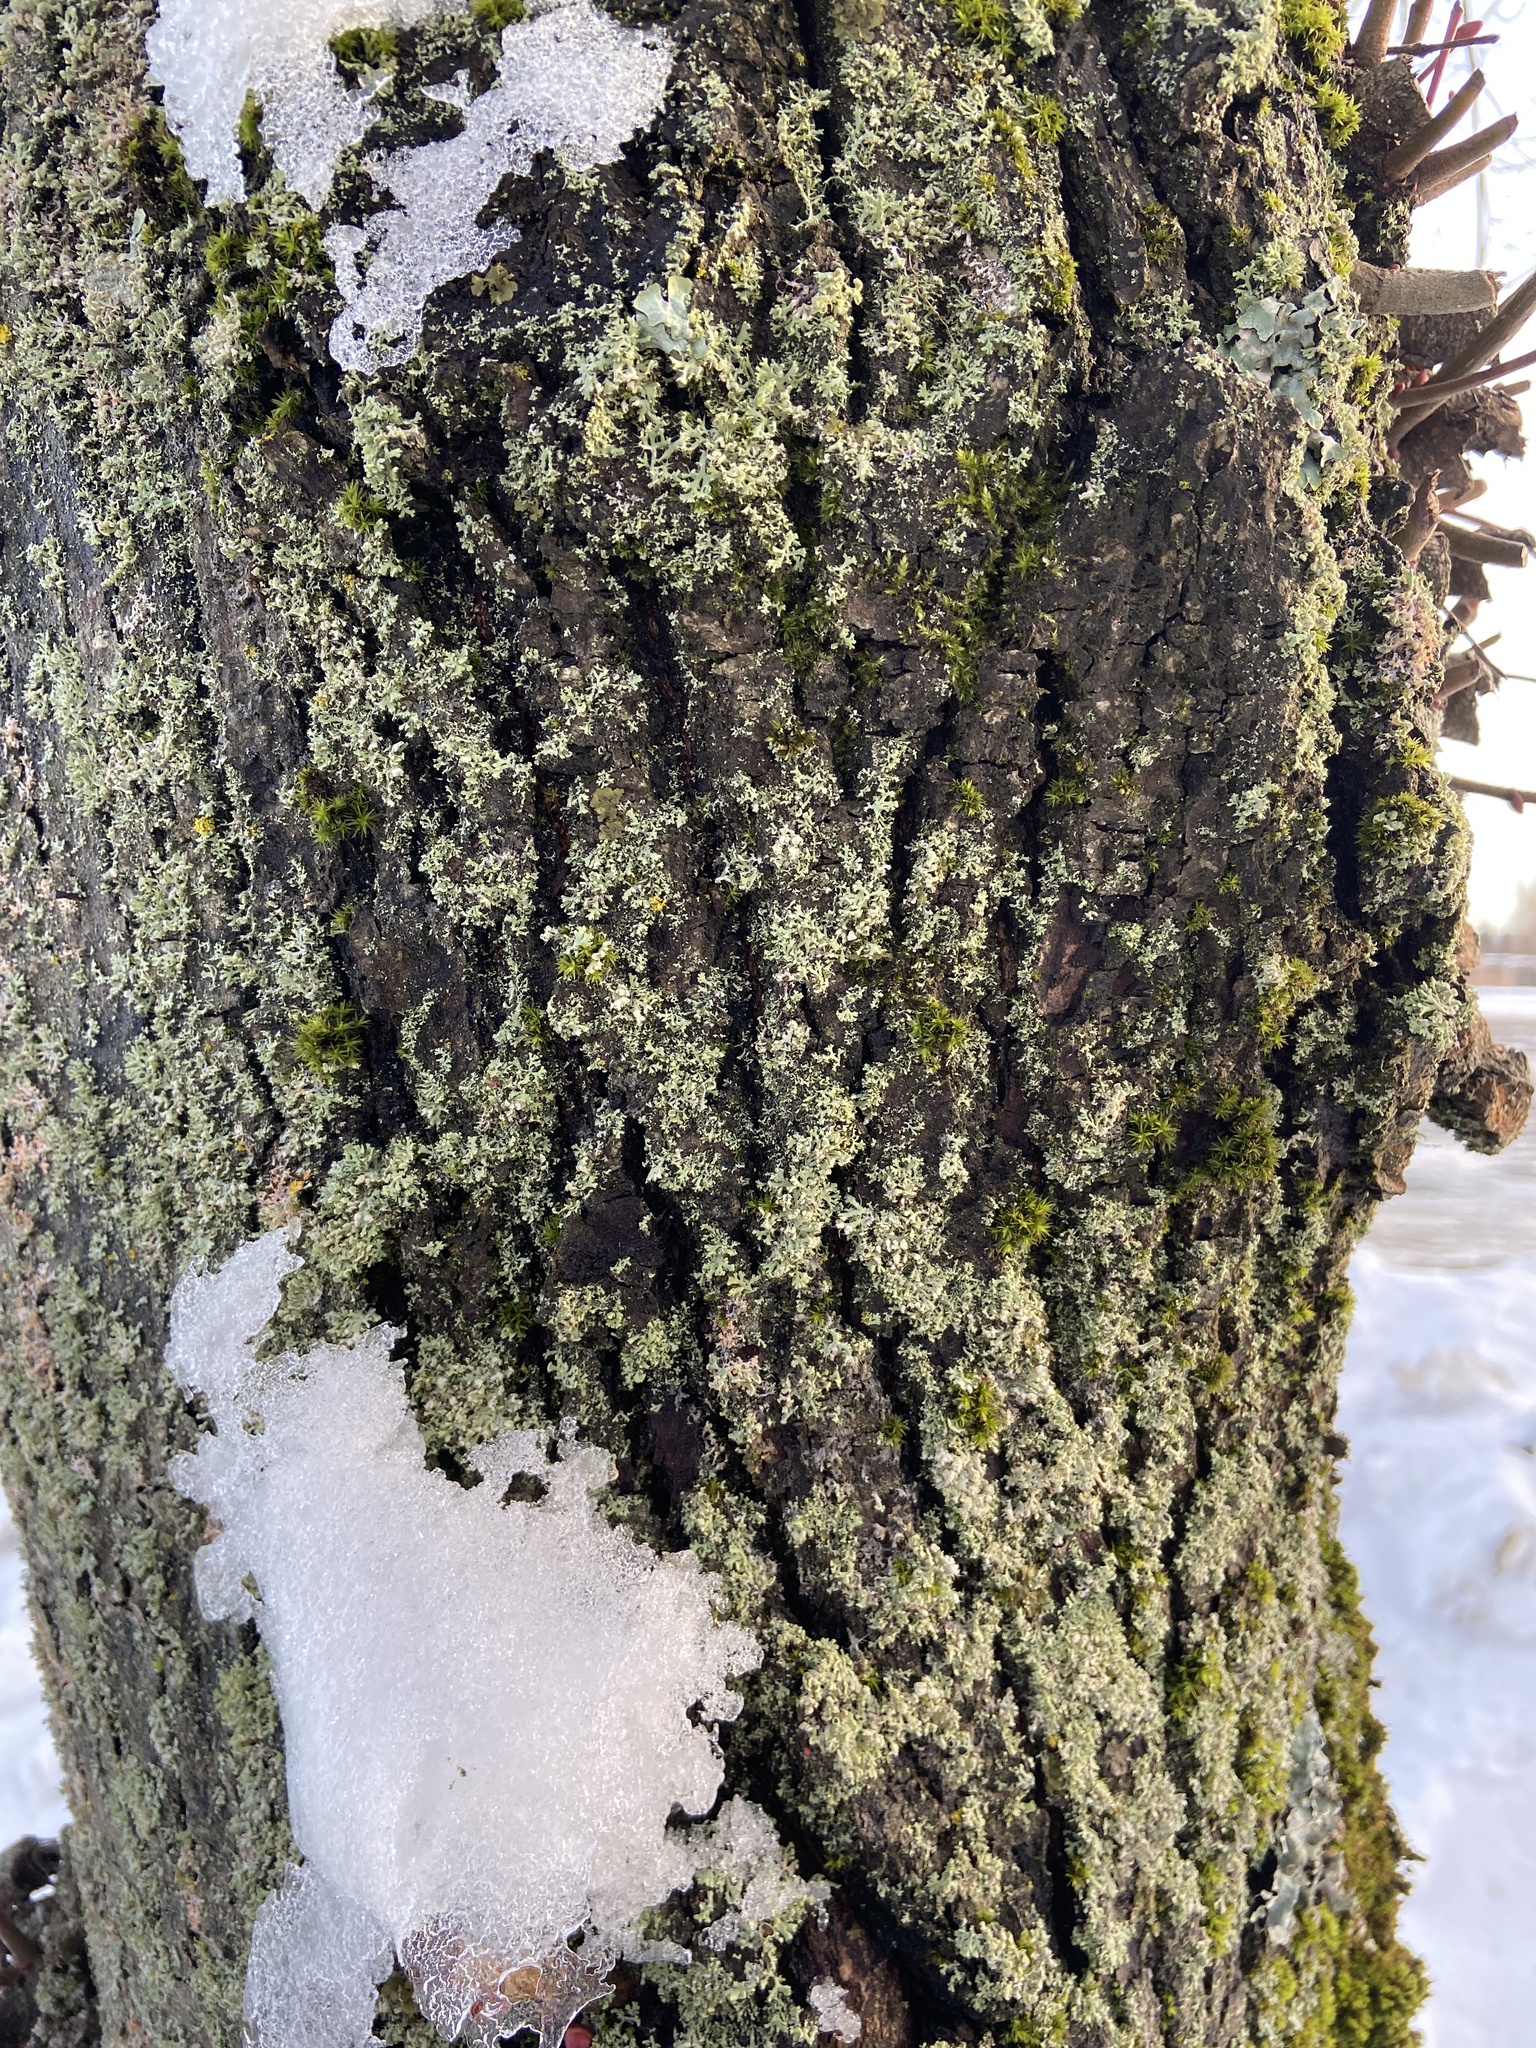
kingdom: Fungi
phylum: Ascomycota
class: Lecanoromycetes
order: Caliciales
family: Physciaceae
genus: Physcia
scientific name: Physcia tenella
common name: Fringed rosette lichen
